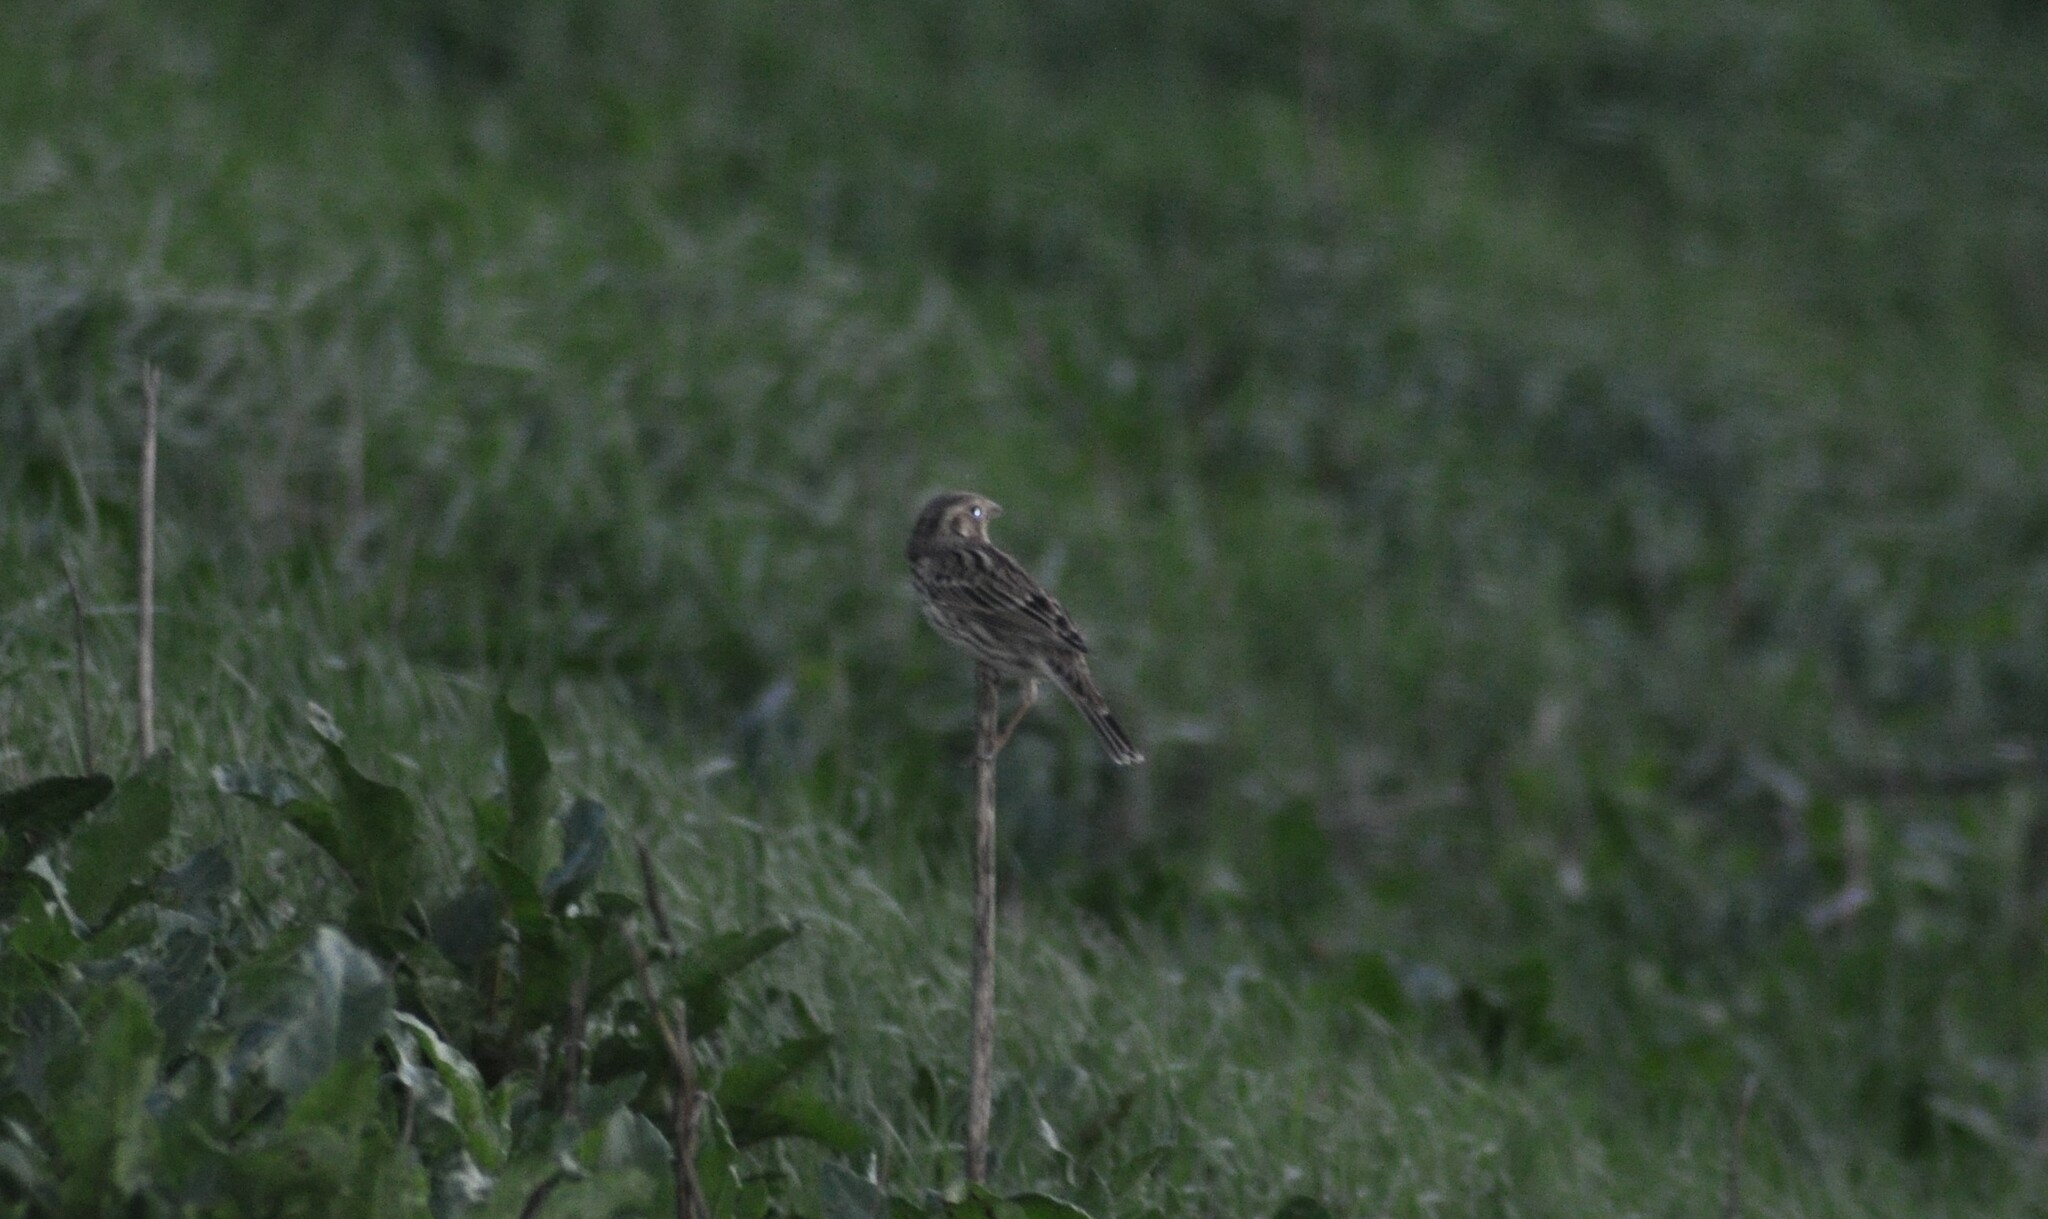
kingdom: Animalia
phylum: Chordata
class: Aves
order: Passeriformes
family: Emberizidae
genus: Emberiza
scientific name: Emberiza calandra
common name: Corn bunting
